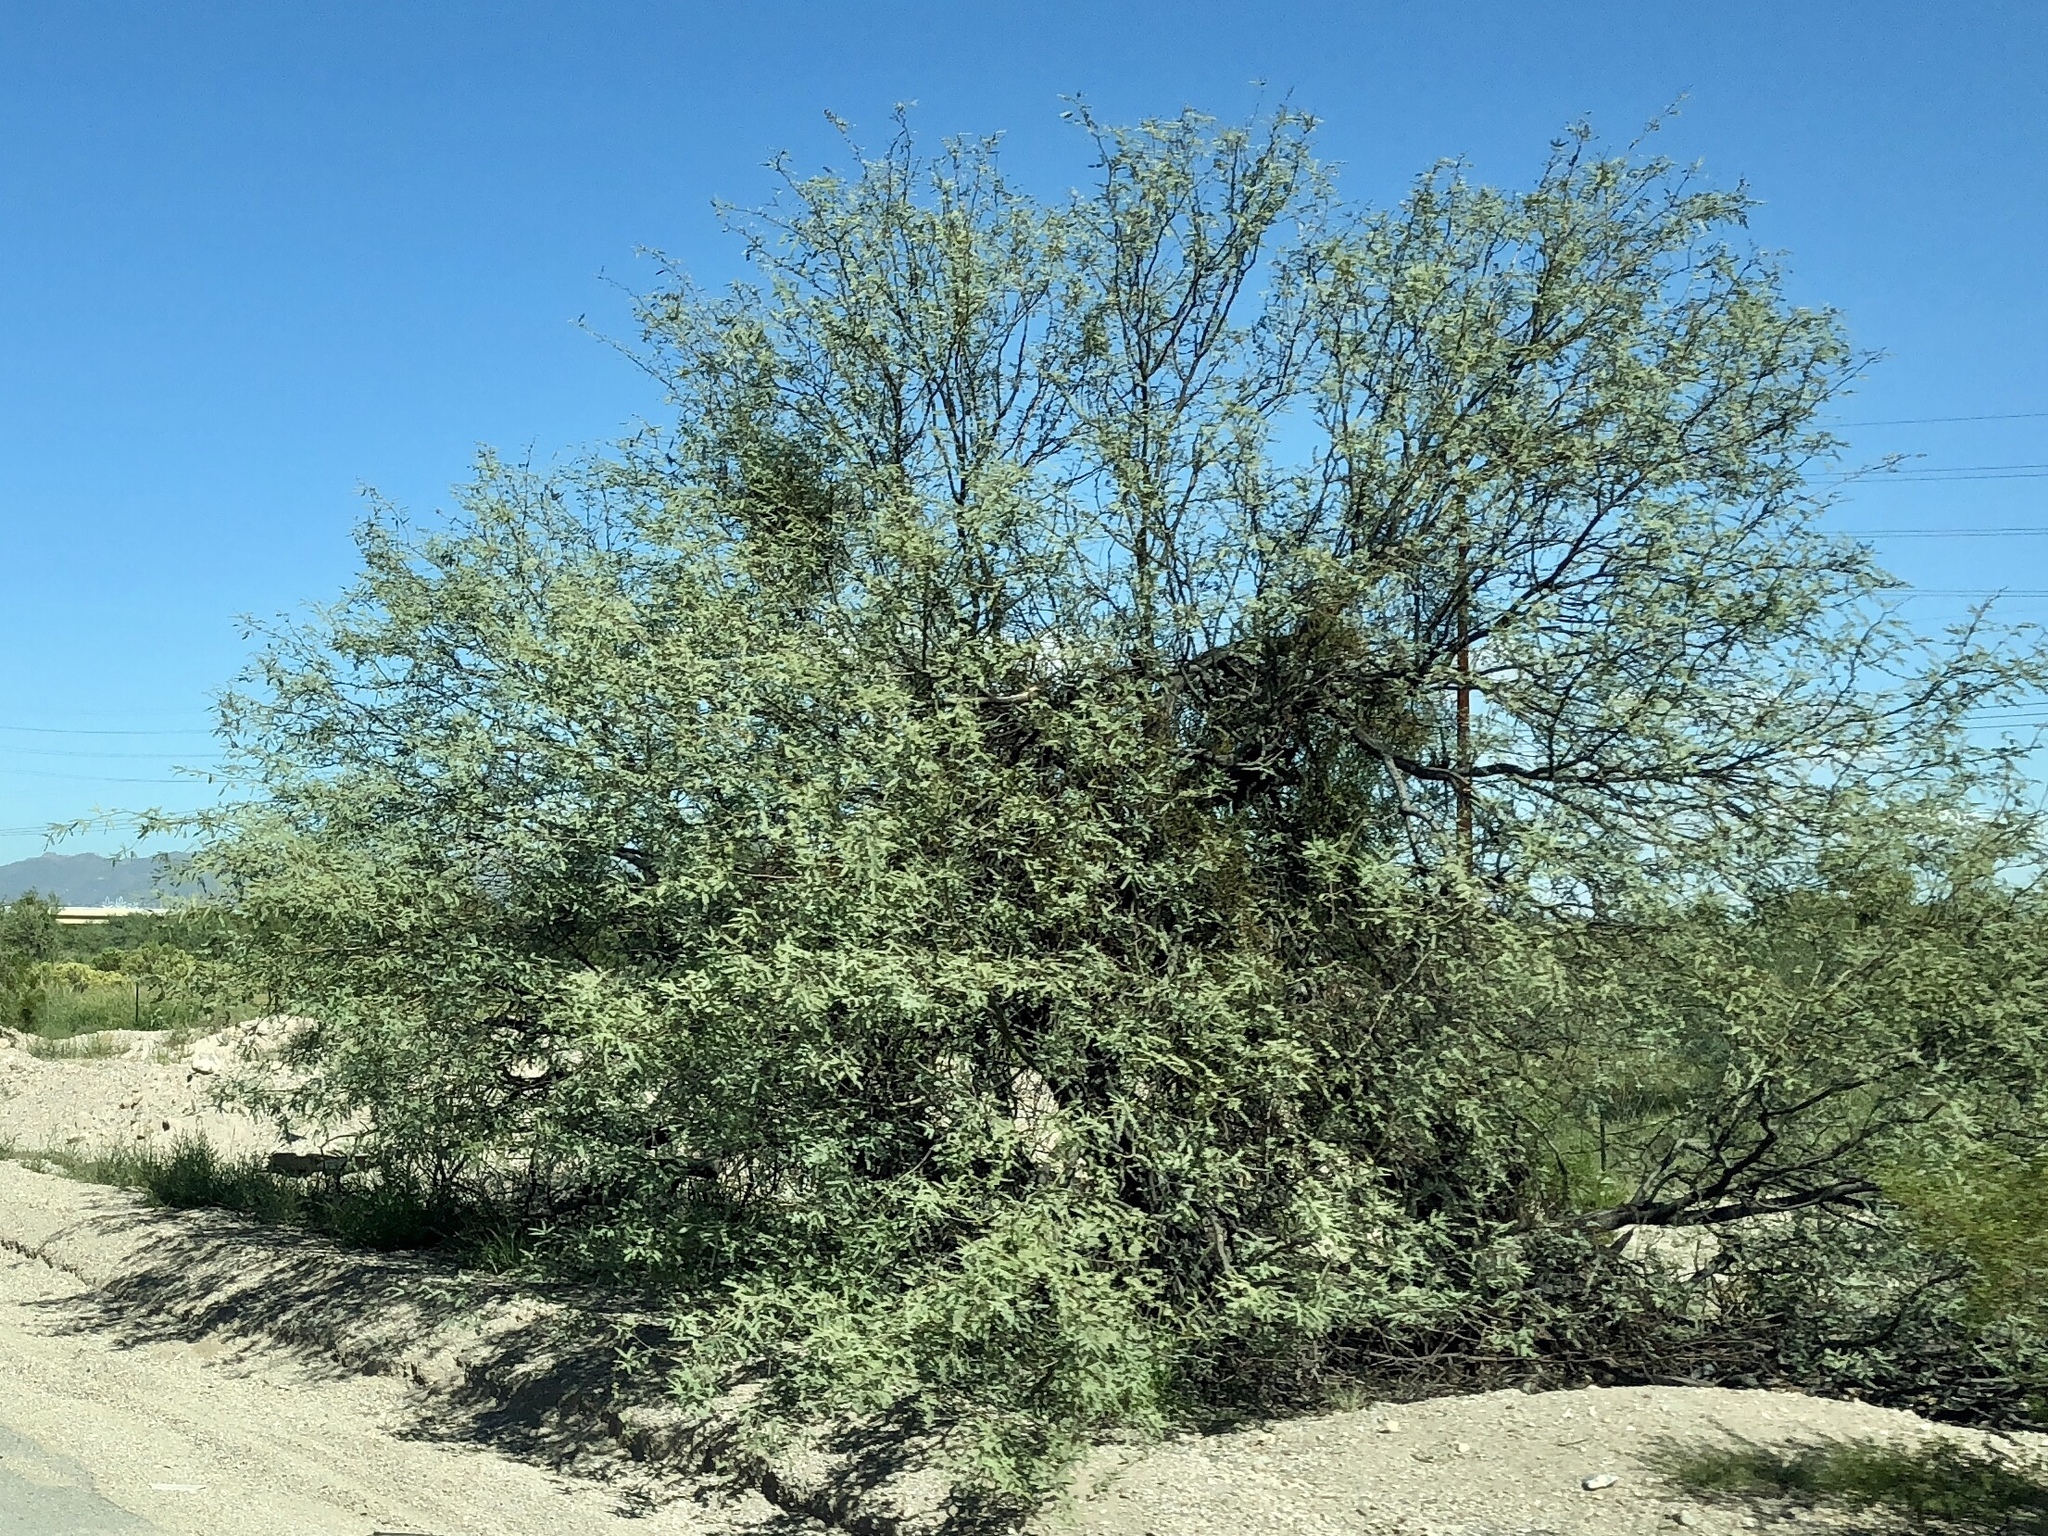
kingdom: Plantae
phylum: Tracheophyta
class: Magnoliopsida
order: Fabales
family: Fabaceae
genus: Prosopis
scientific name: Prosopis velutina
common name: Velvet mesquite
